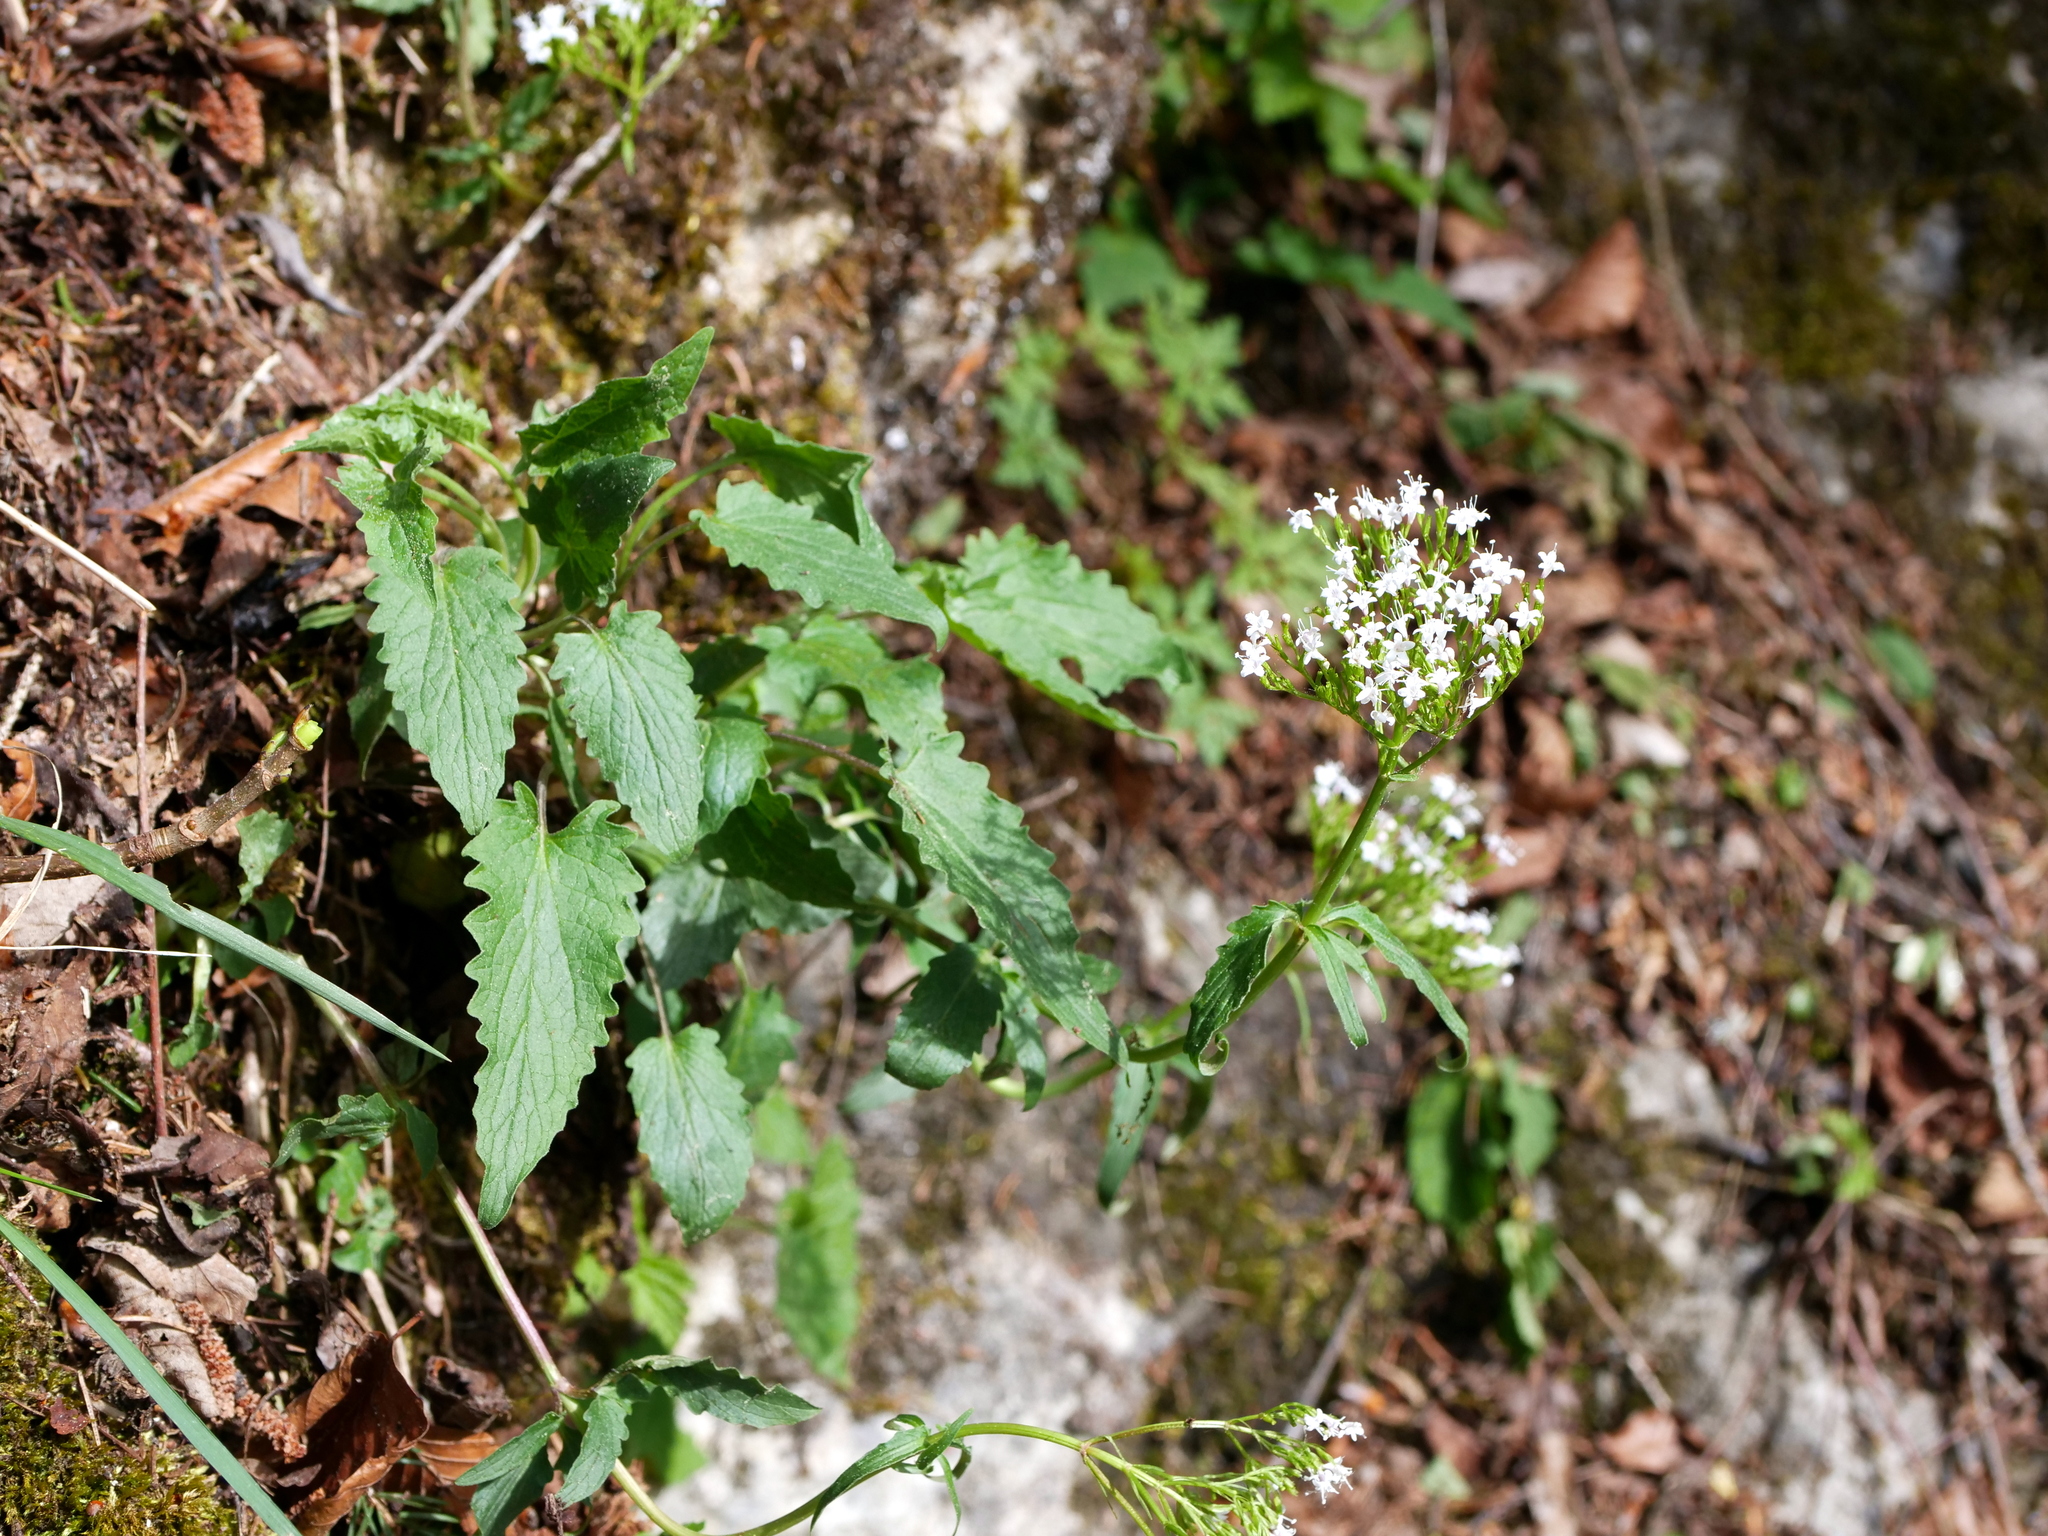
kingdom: Plantae
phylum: Tracheophyta
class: Magnoliopsida
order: Dipsacales
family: Caprifoliaceae
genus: Valeriana
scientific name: Valeriana tripteris
